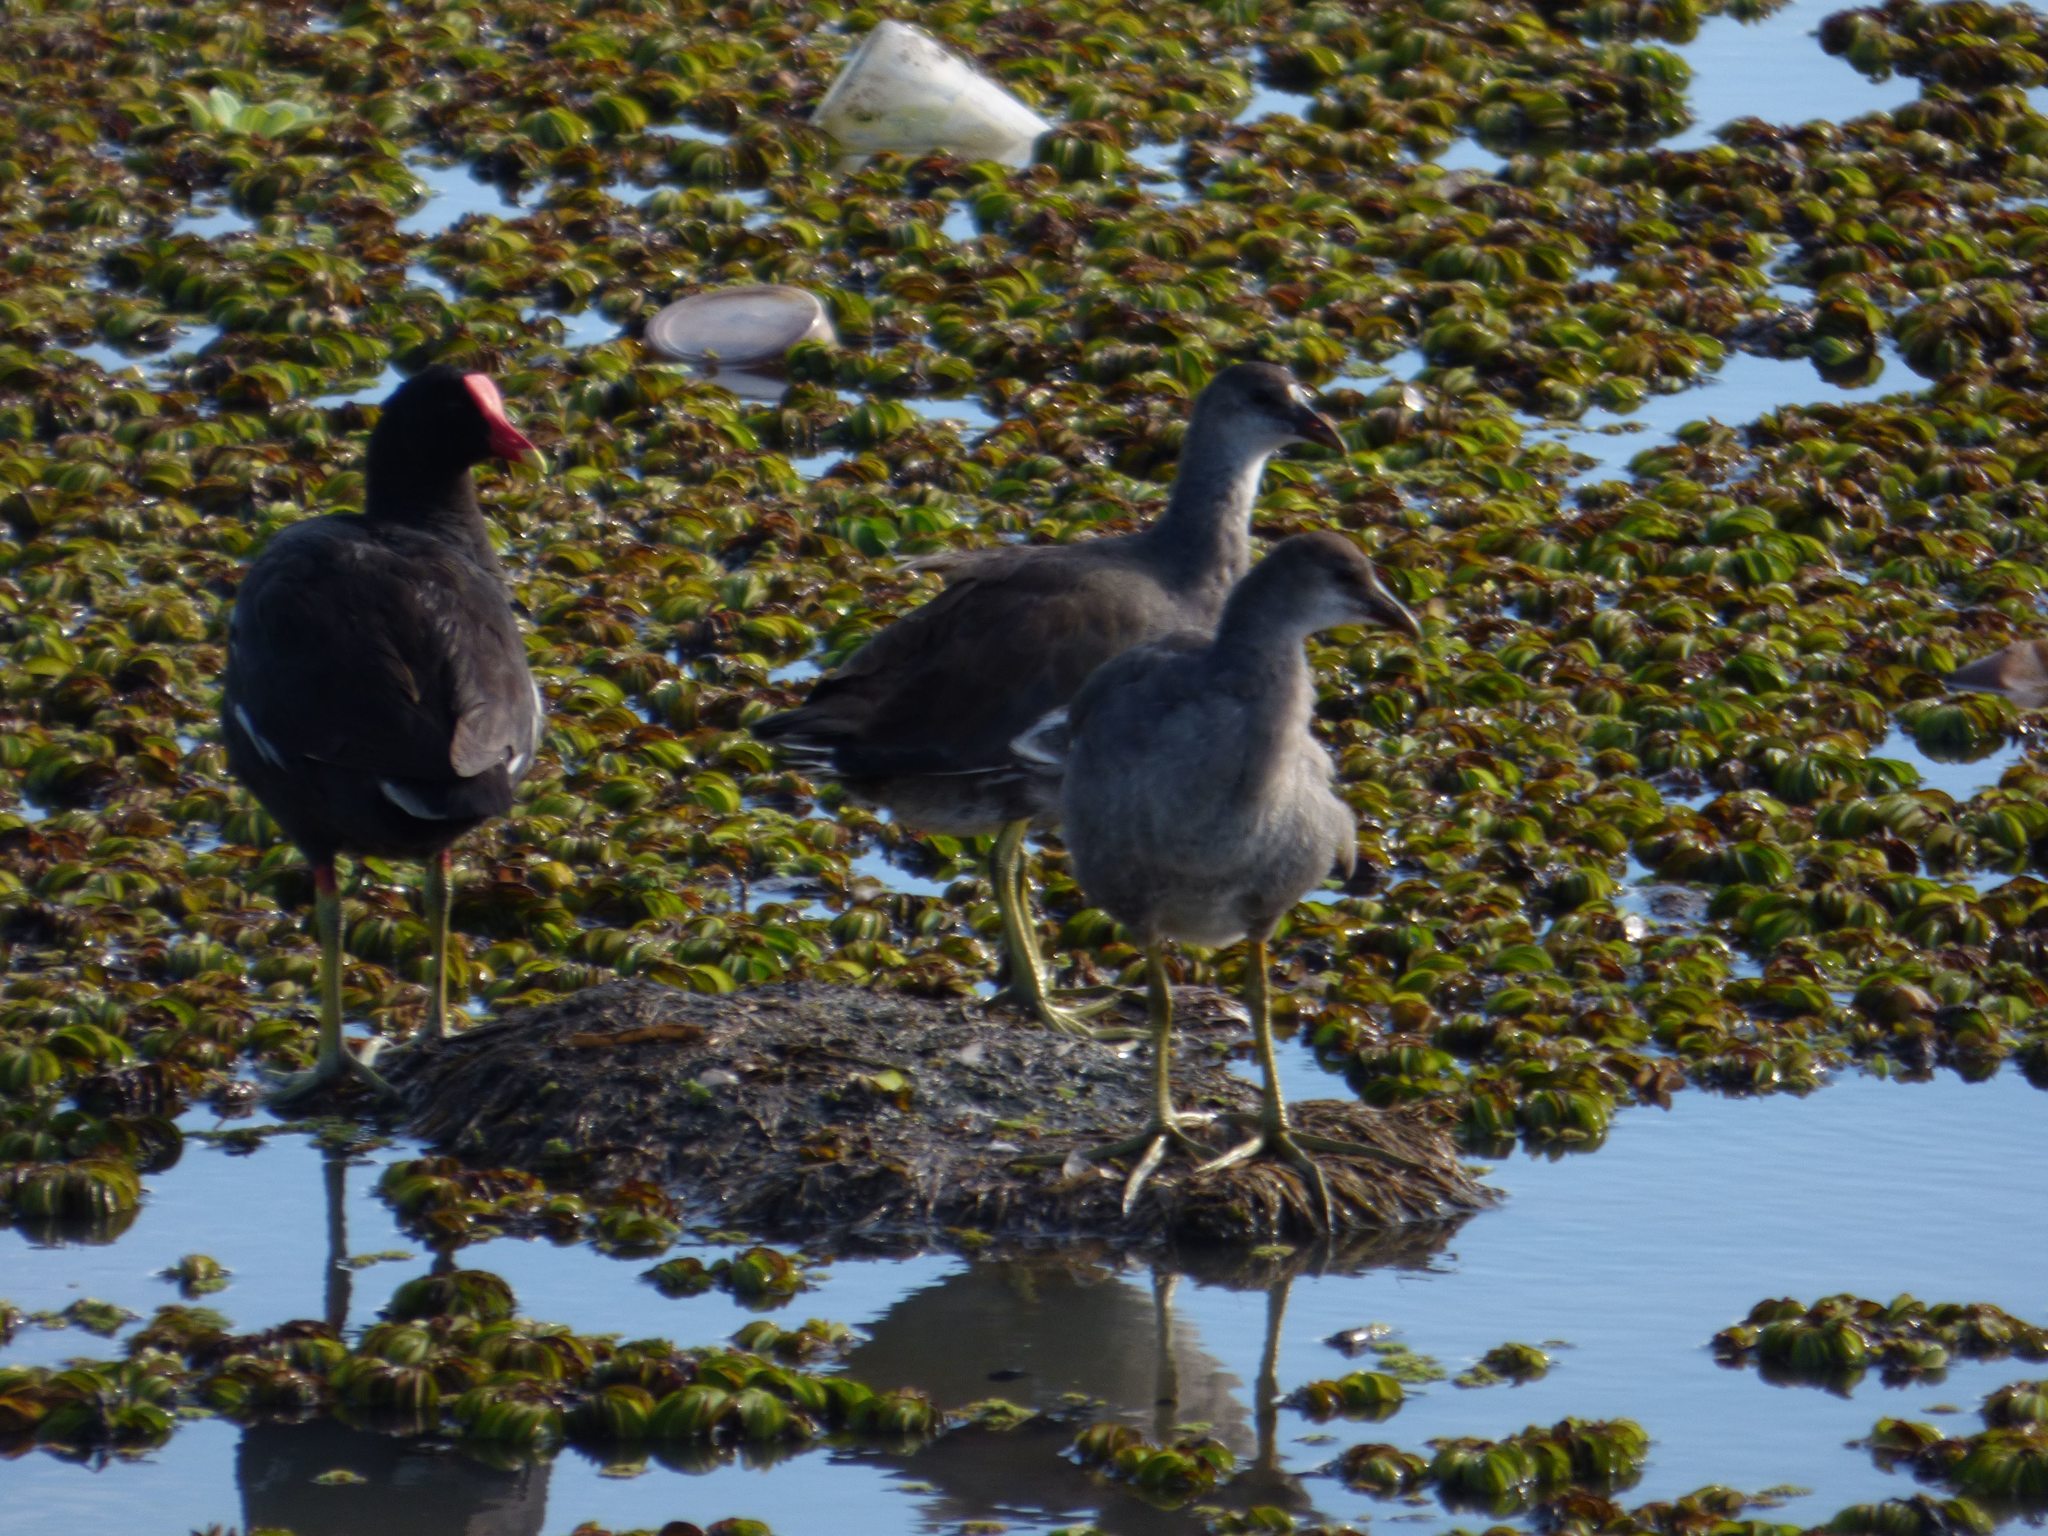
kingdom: Animalia
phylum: Chordata
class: Aves
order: Gruiformes
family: Rallidae
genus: Gallinula
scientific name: Gallinula chloropus
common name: Common moorhen
